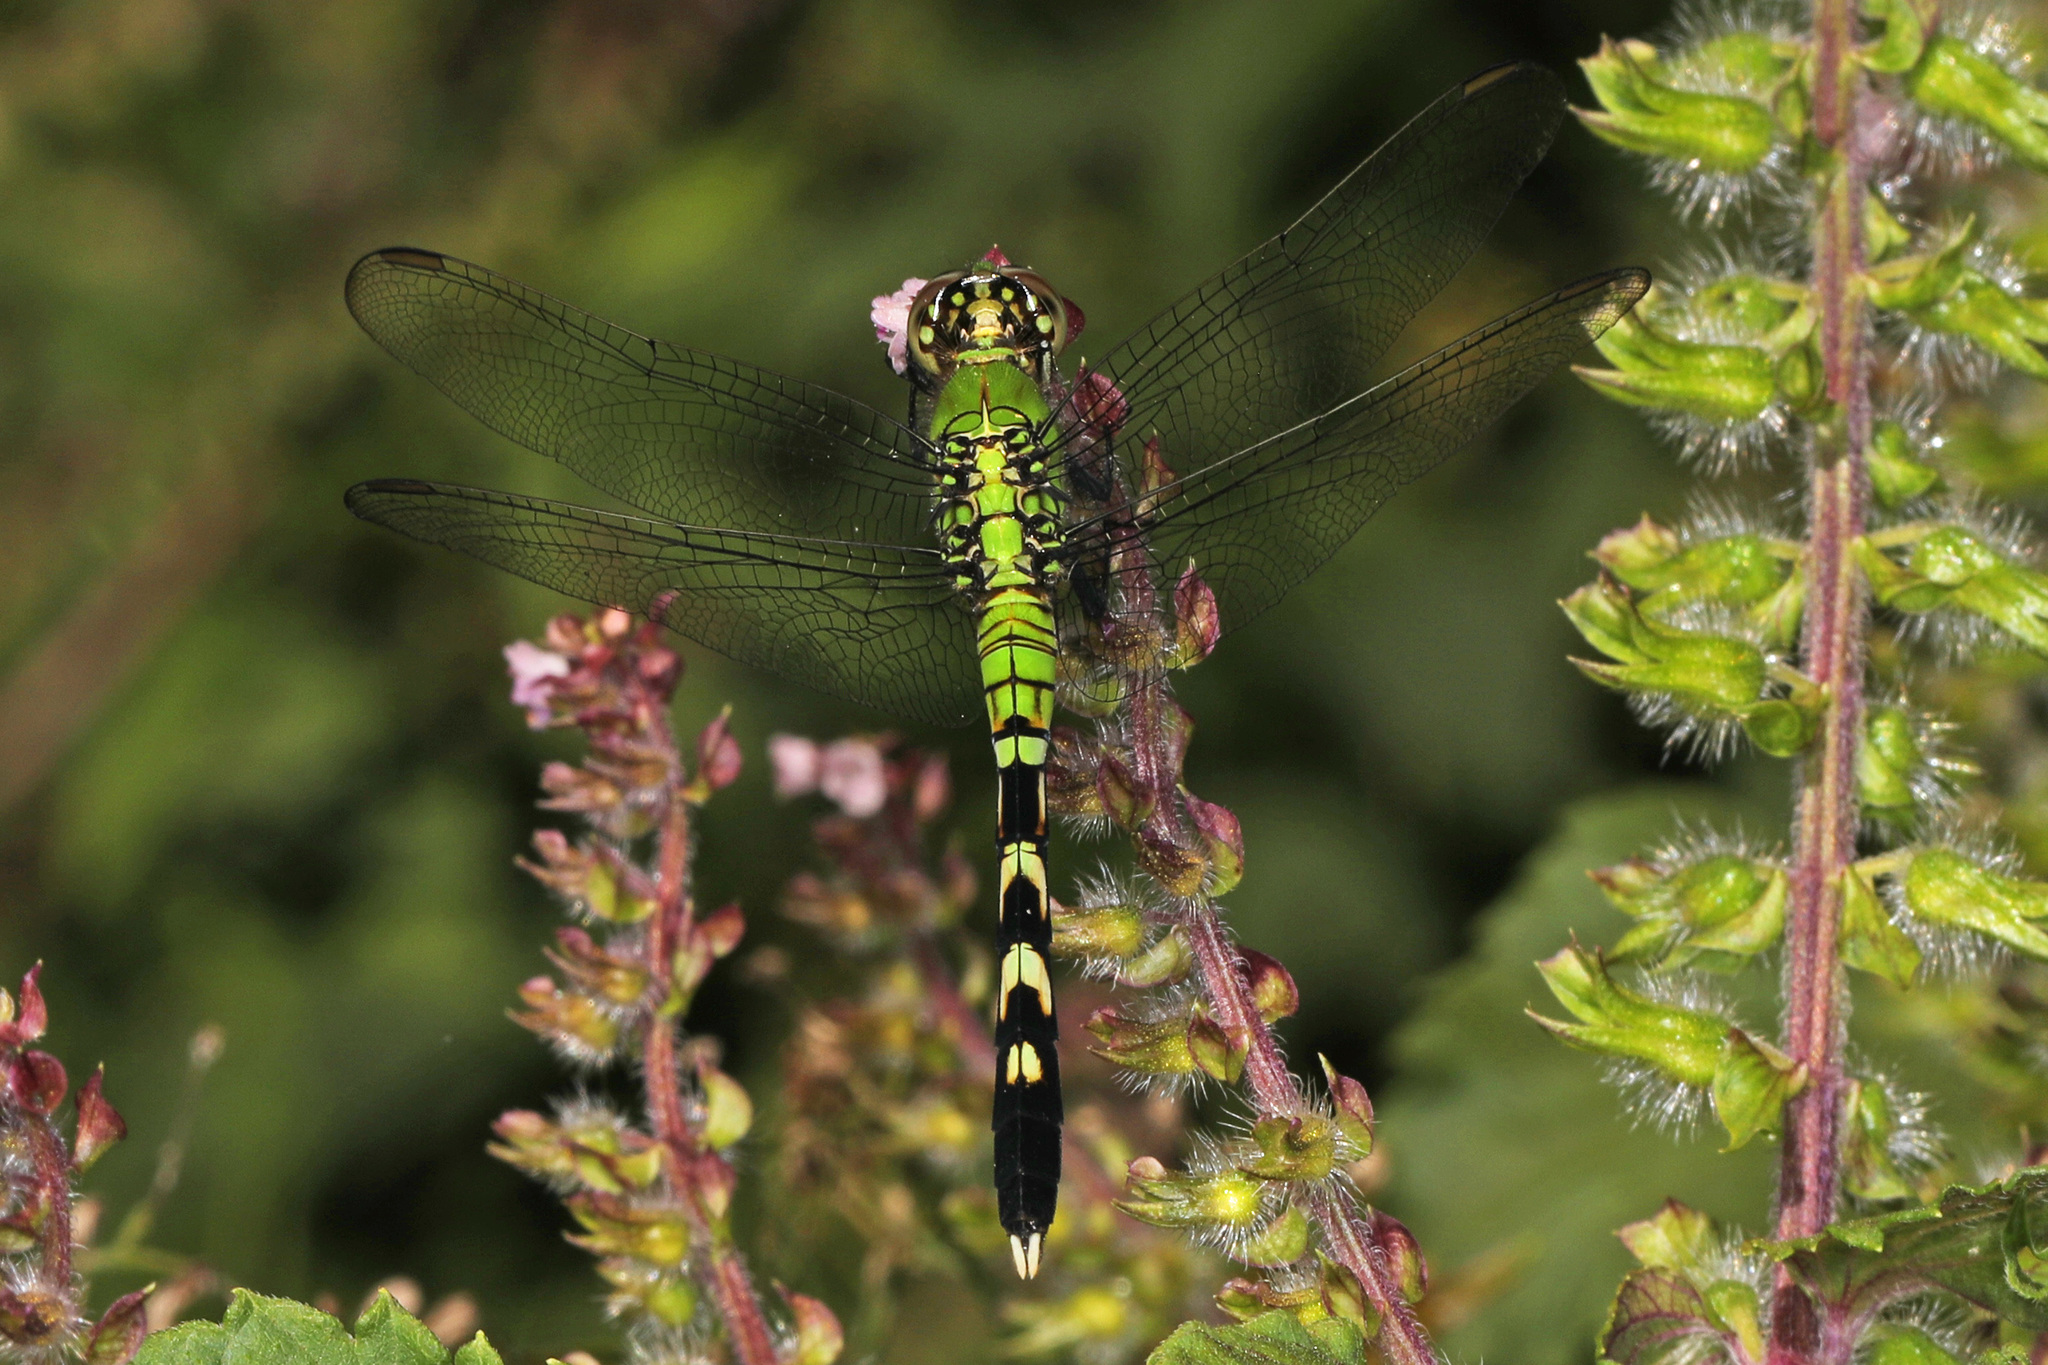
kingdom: Animalia
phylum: Arthropoda
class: Insecta
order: Odonata
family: Libellulidae
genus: Erythemis
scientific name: Erythemis simplicicollis
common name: Eastern pondhawk
